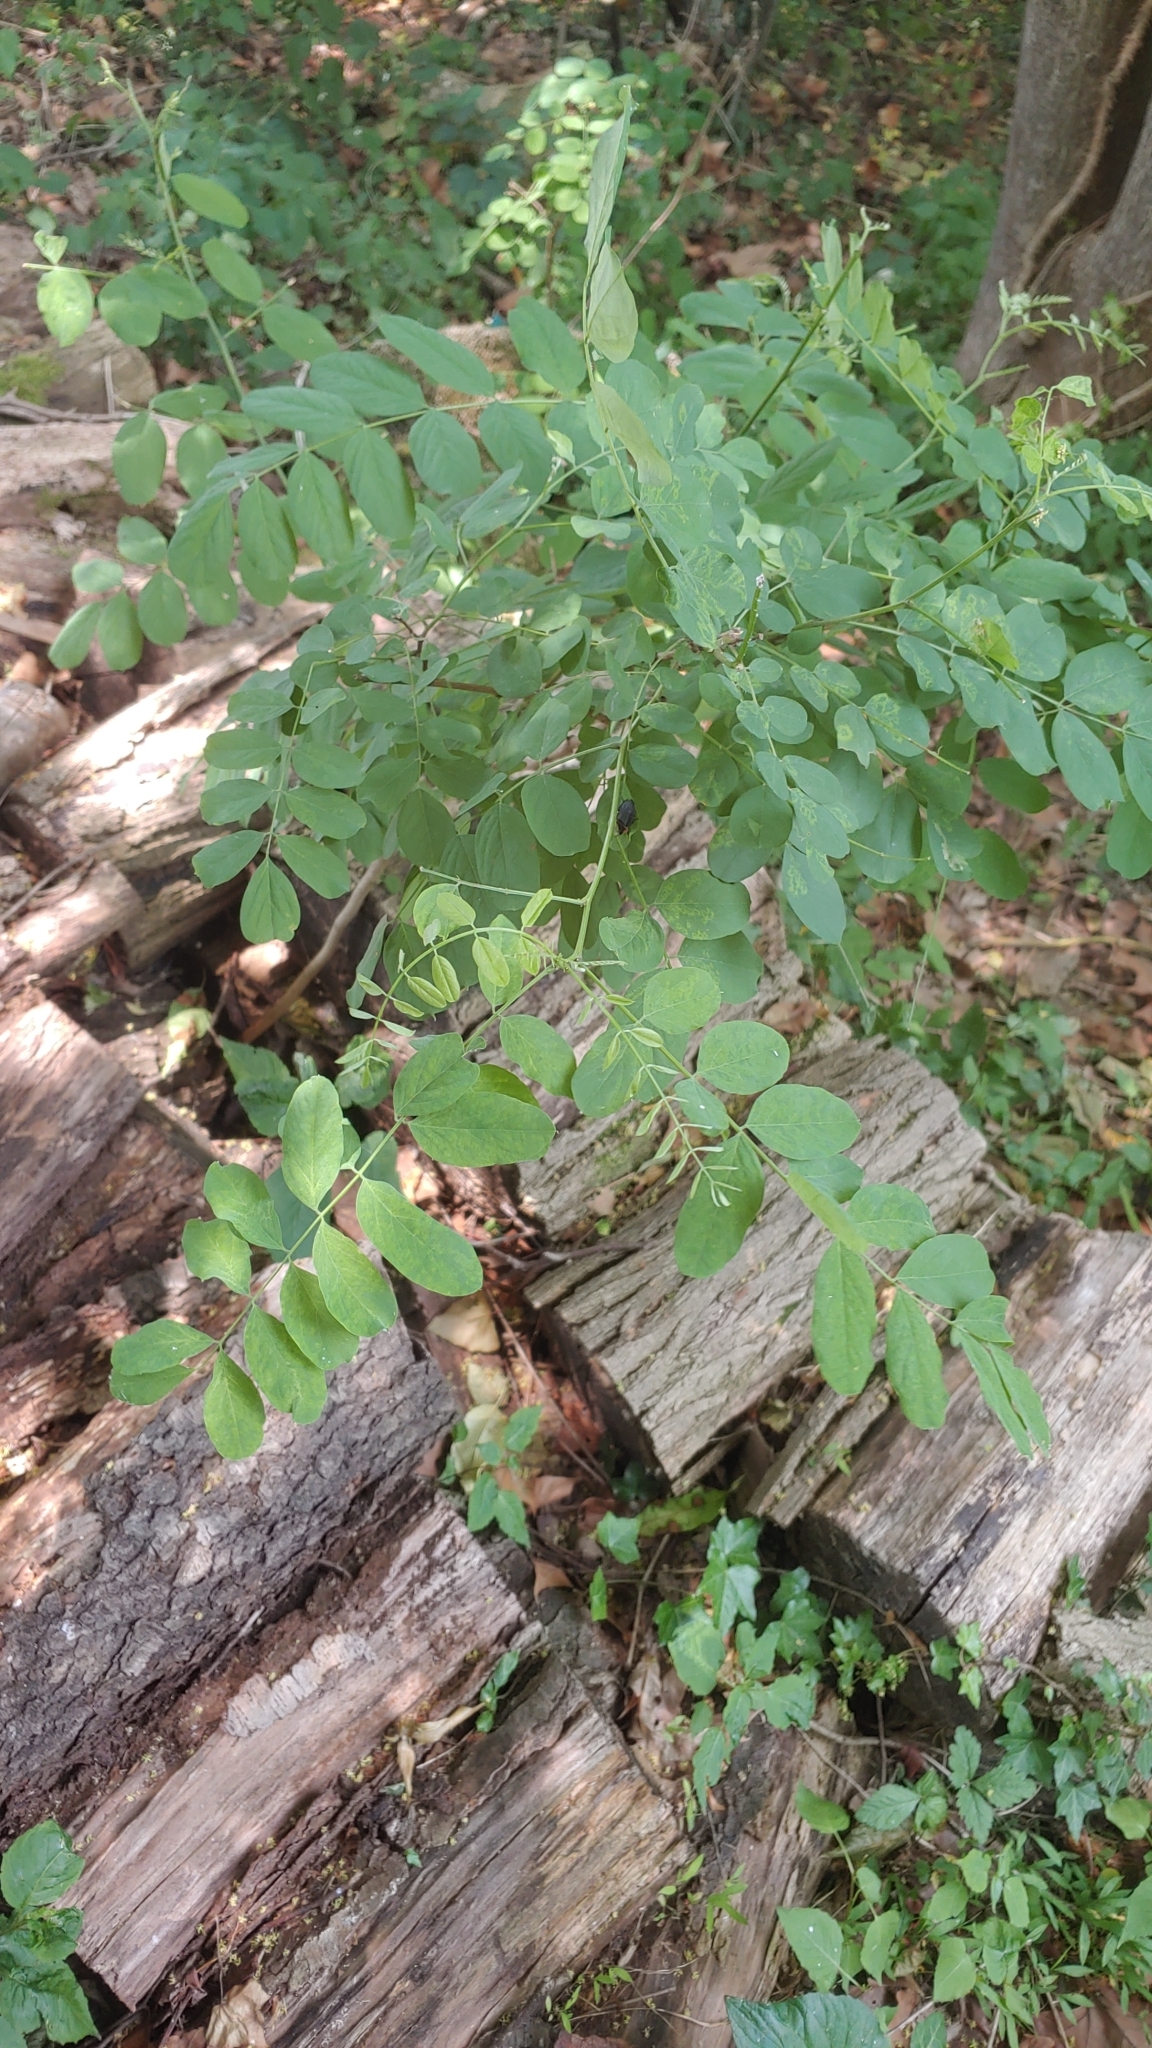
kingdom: Plantae
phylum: Tracheophyta
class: Magnoliopsida
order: Fabales
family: Fabaceae
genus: Robinia
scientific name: Robinia pseudoacacia
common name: Black locust
